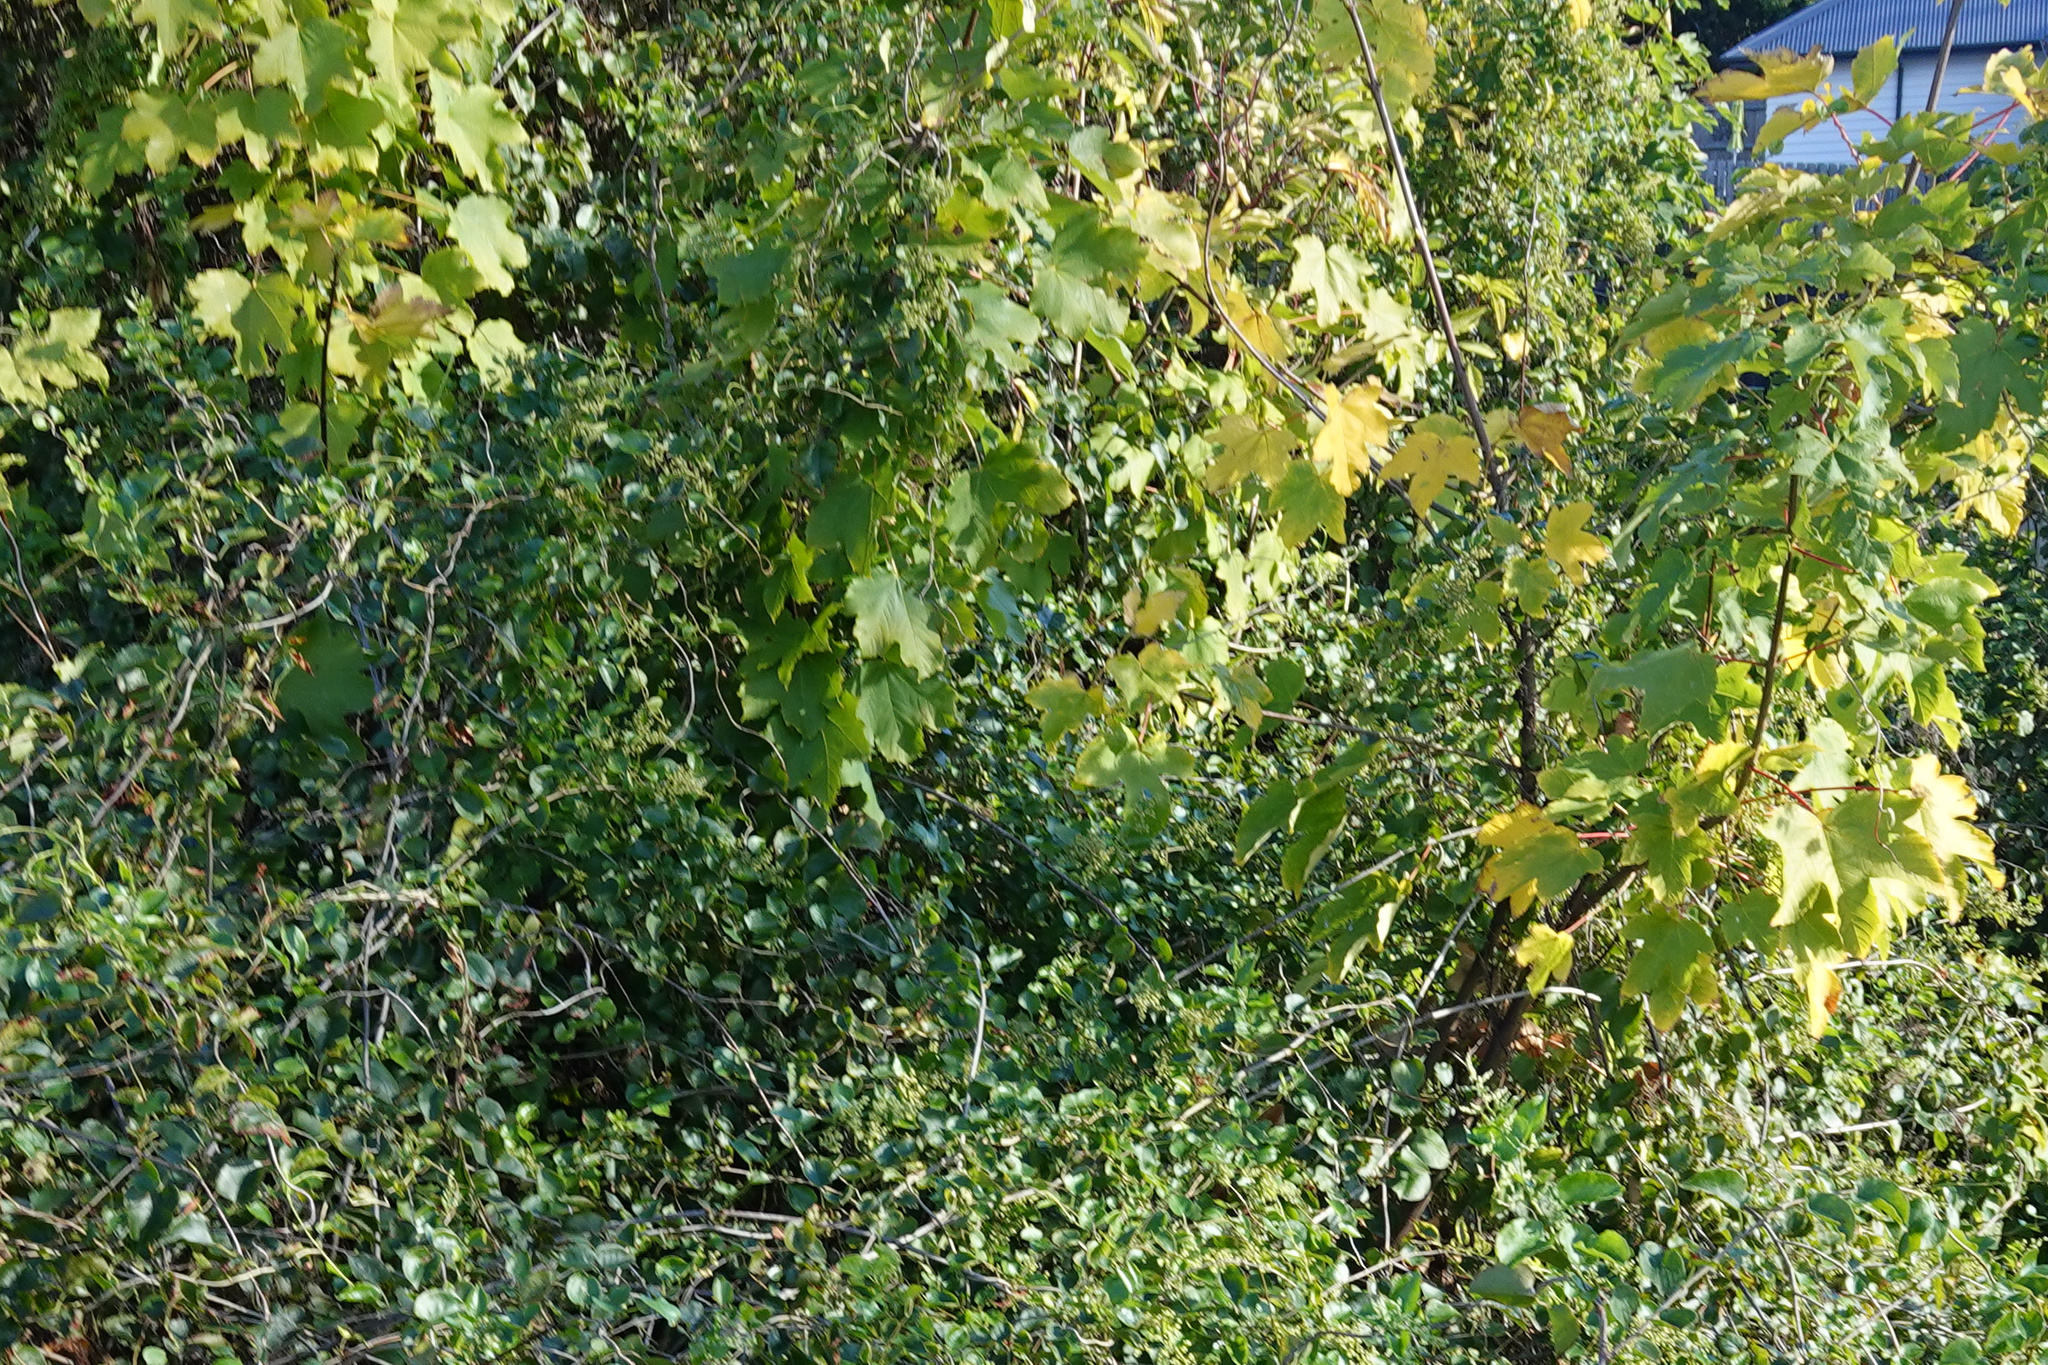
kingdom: Plantae
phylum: Tracheophyta
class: Magnoliopsida
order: Sapindales
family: Sapindaceae
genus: Acer
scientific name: Acer pseudoplatanus
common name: Sycamore
